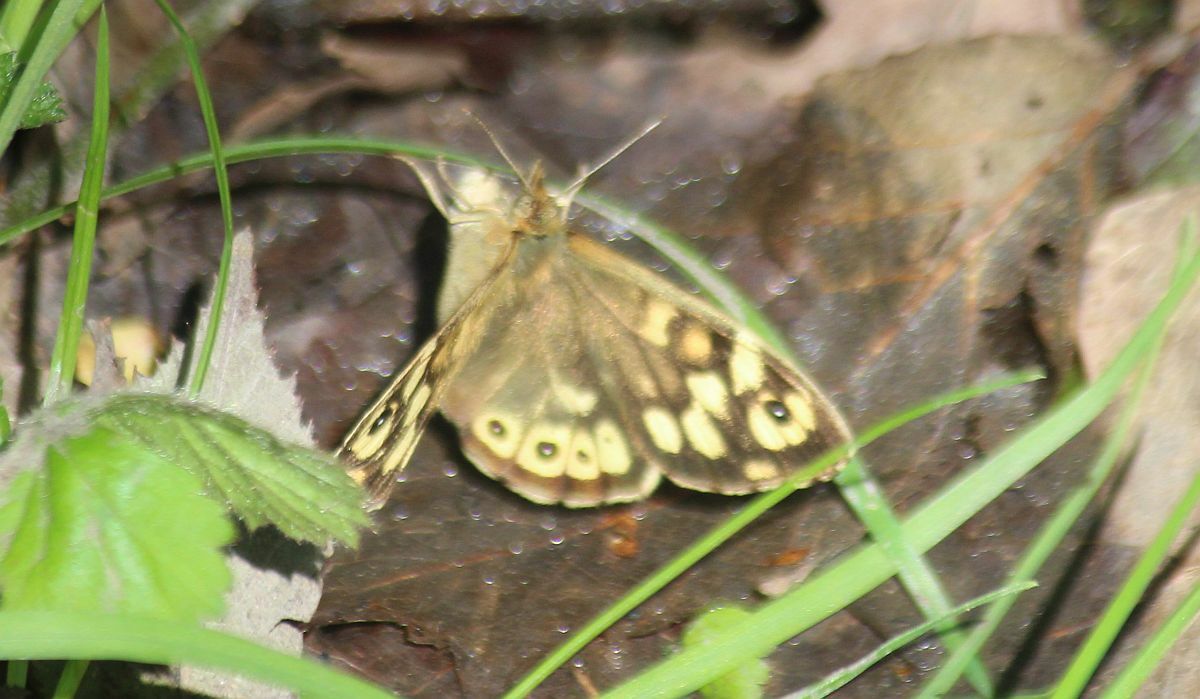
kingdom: Animalia
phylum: Arthropoda
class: Insecta
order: Lepidoptera
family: Nymphalidae
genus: Pararge
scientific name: Pararge aegeria
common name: Speckled wood
